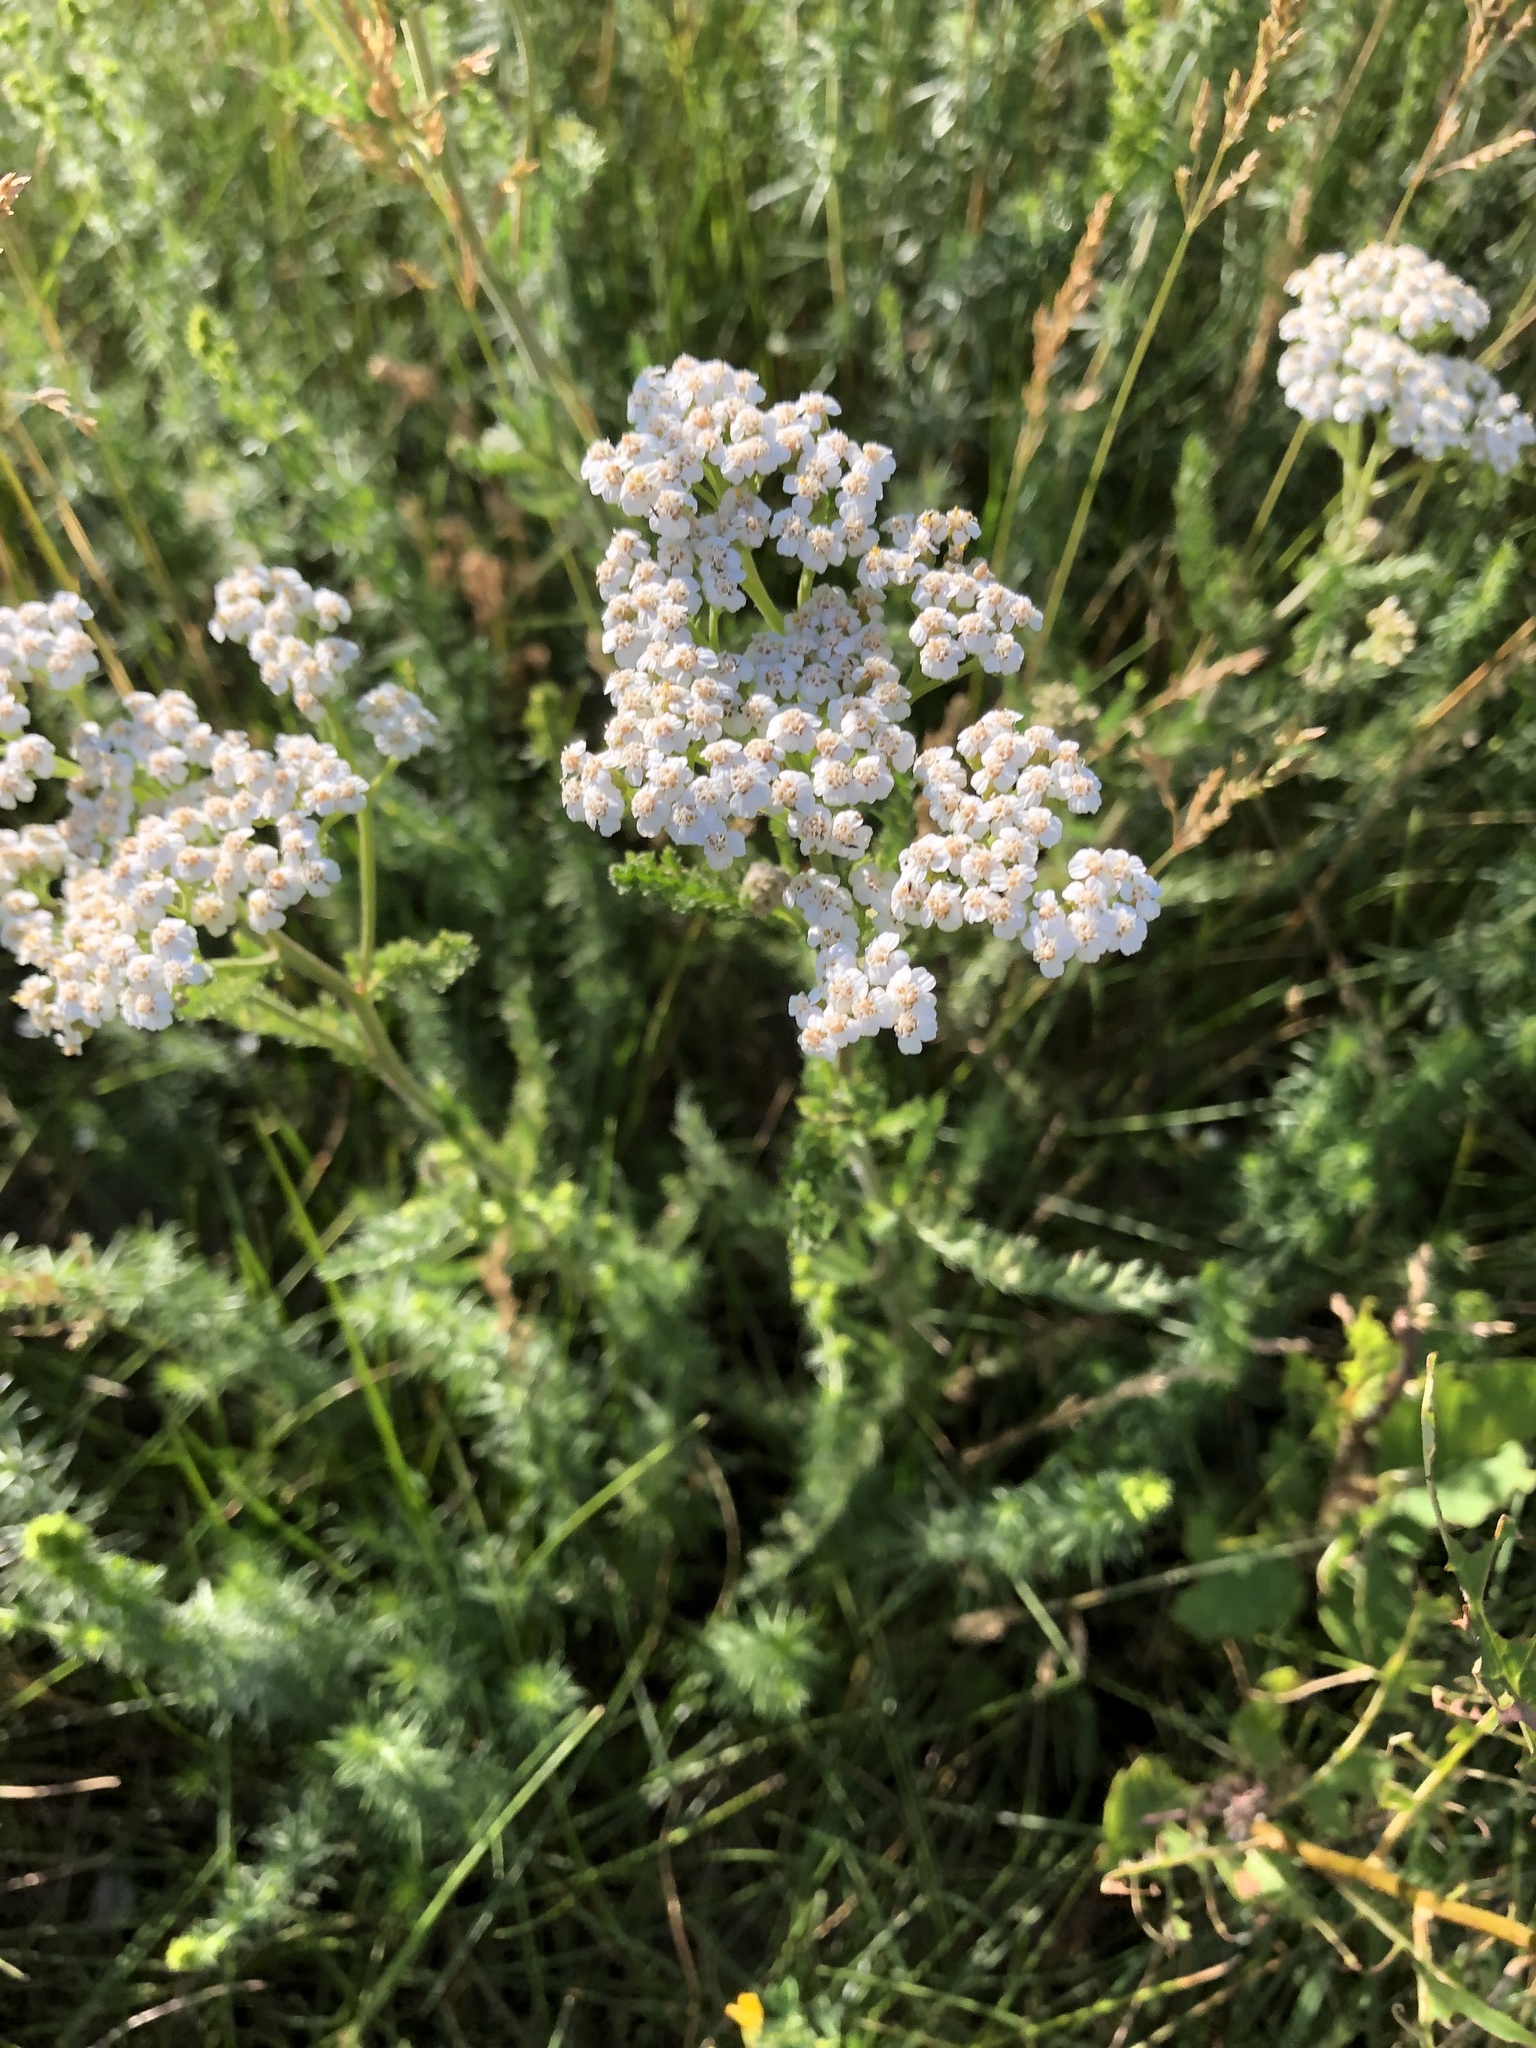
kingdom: Plantae
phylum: Tracheophyta
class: Magnoliopsida
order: Asterales
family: Asteraceae
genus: Achillea
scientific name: Achillea millefolium
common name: Yarrow
